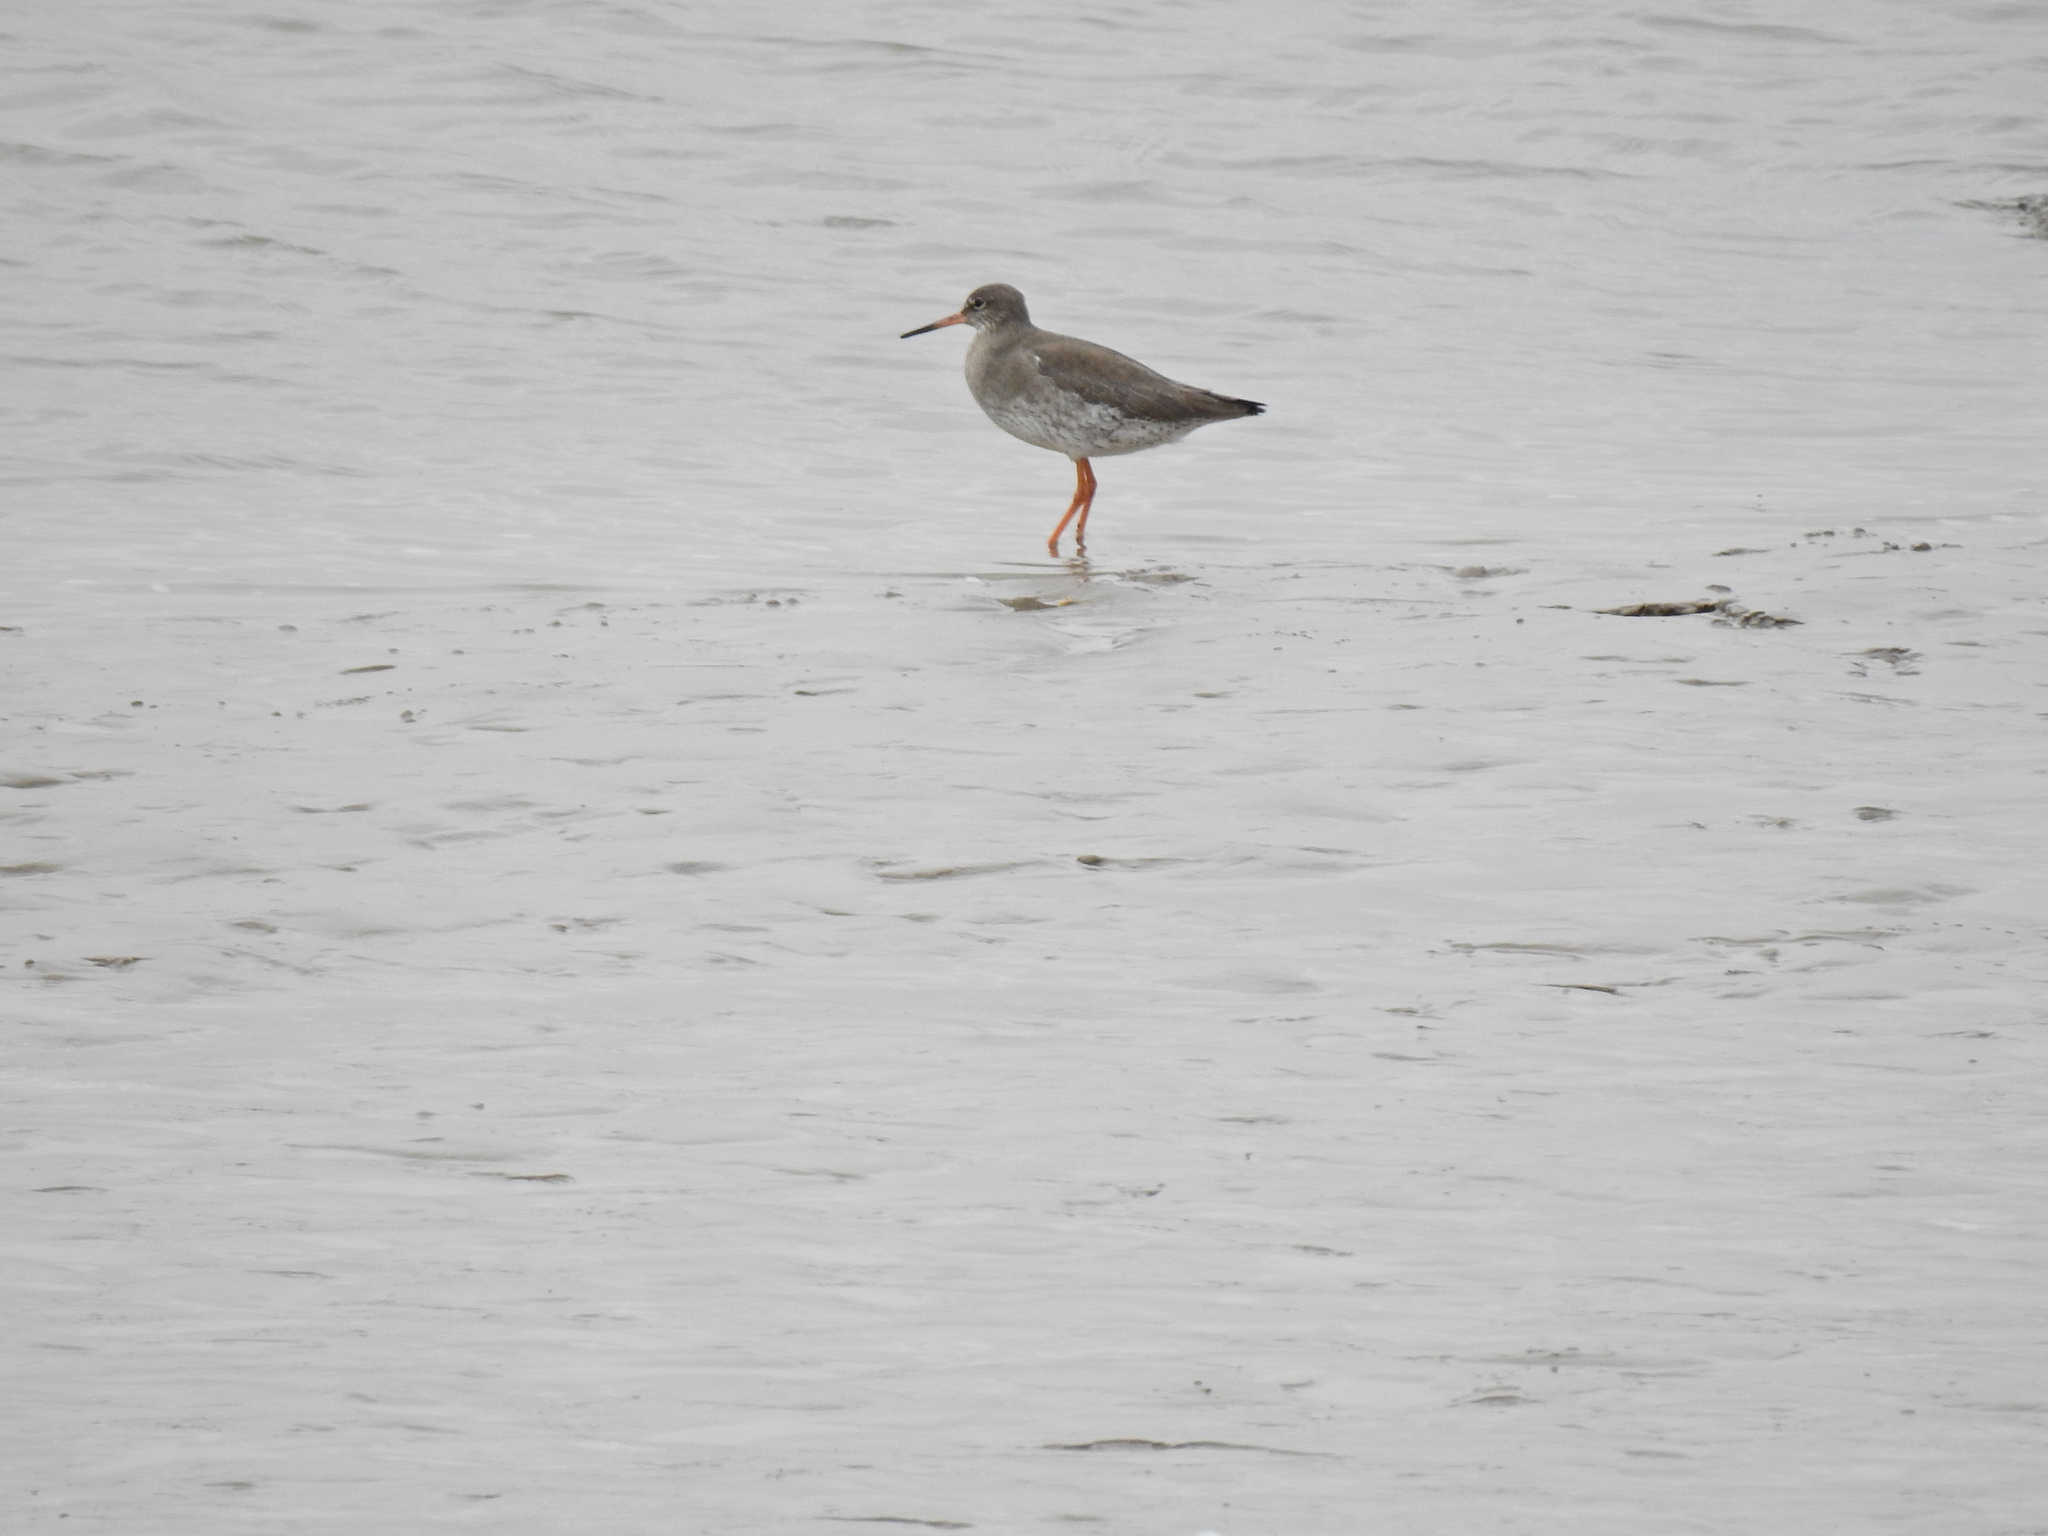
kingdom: Animalia
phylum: Chordata
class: Aves
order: Charadriiformes
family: Scolopacidae
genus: Tringa
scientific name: Tringa totanus
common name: Common redshank
